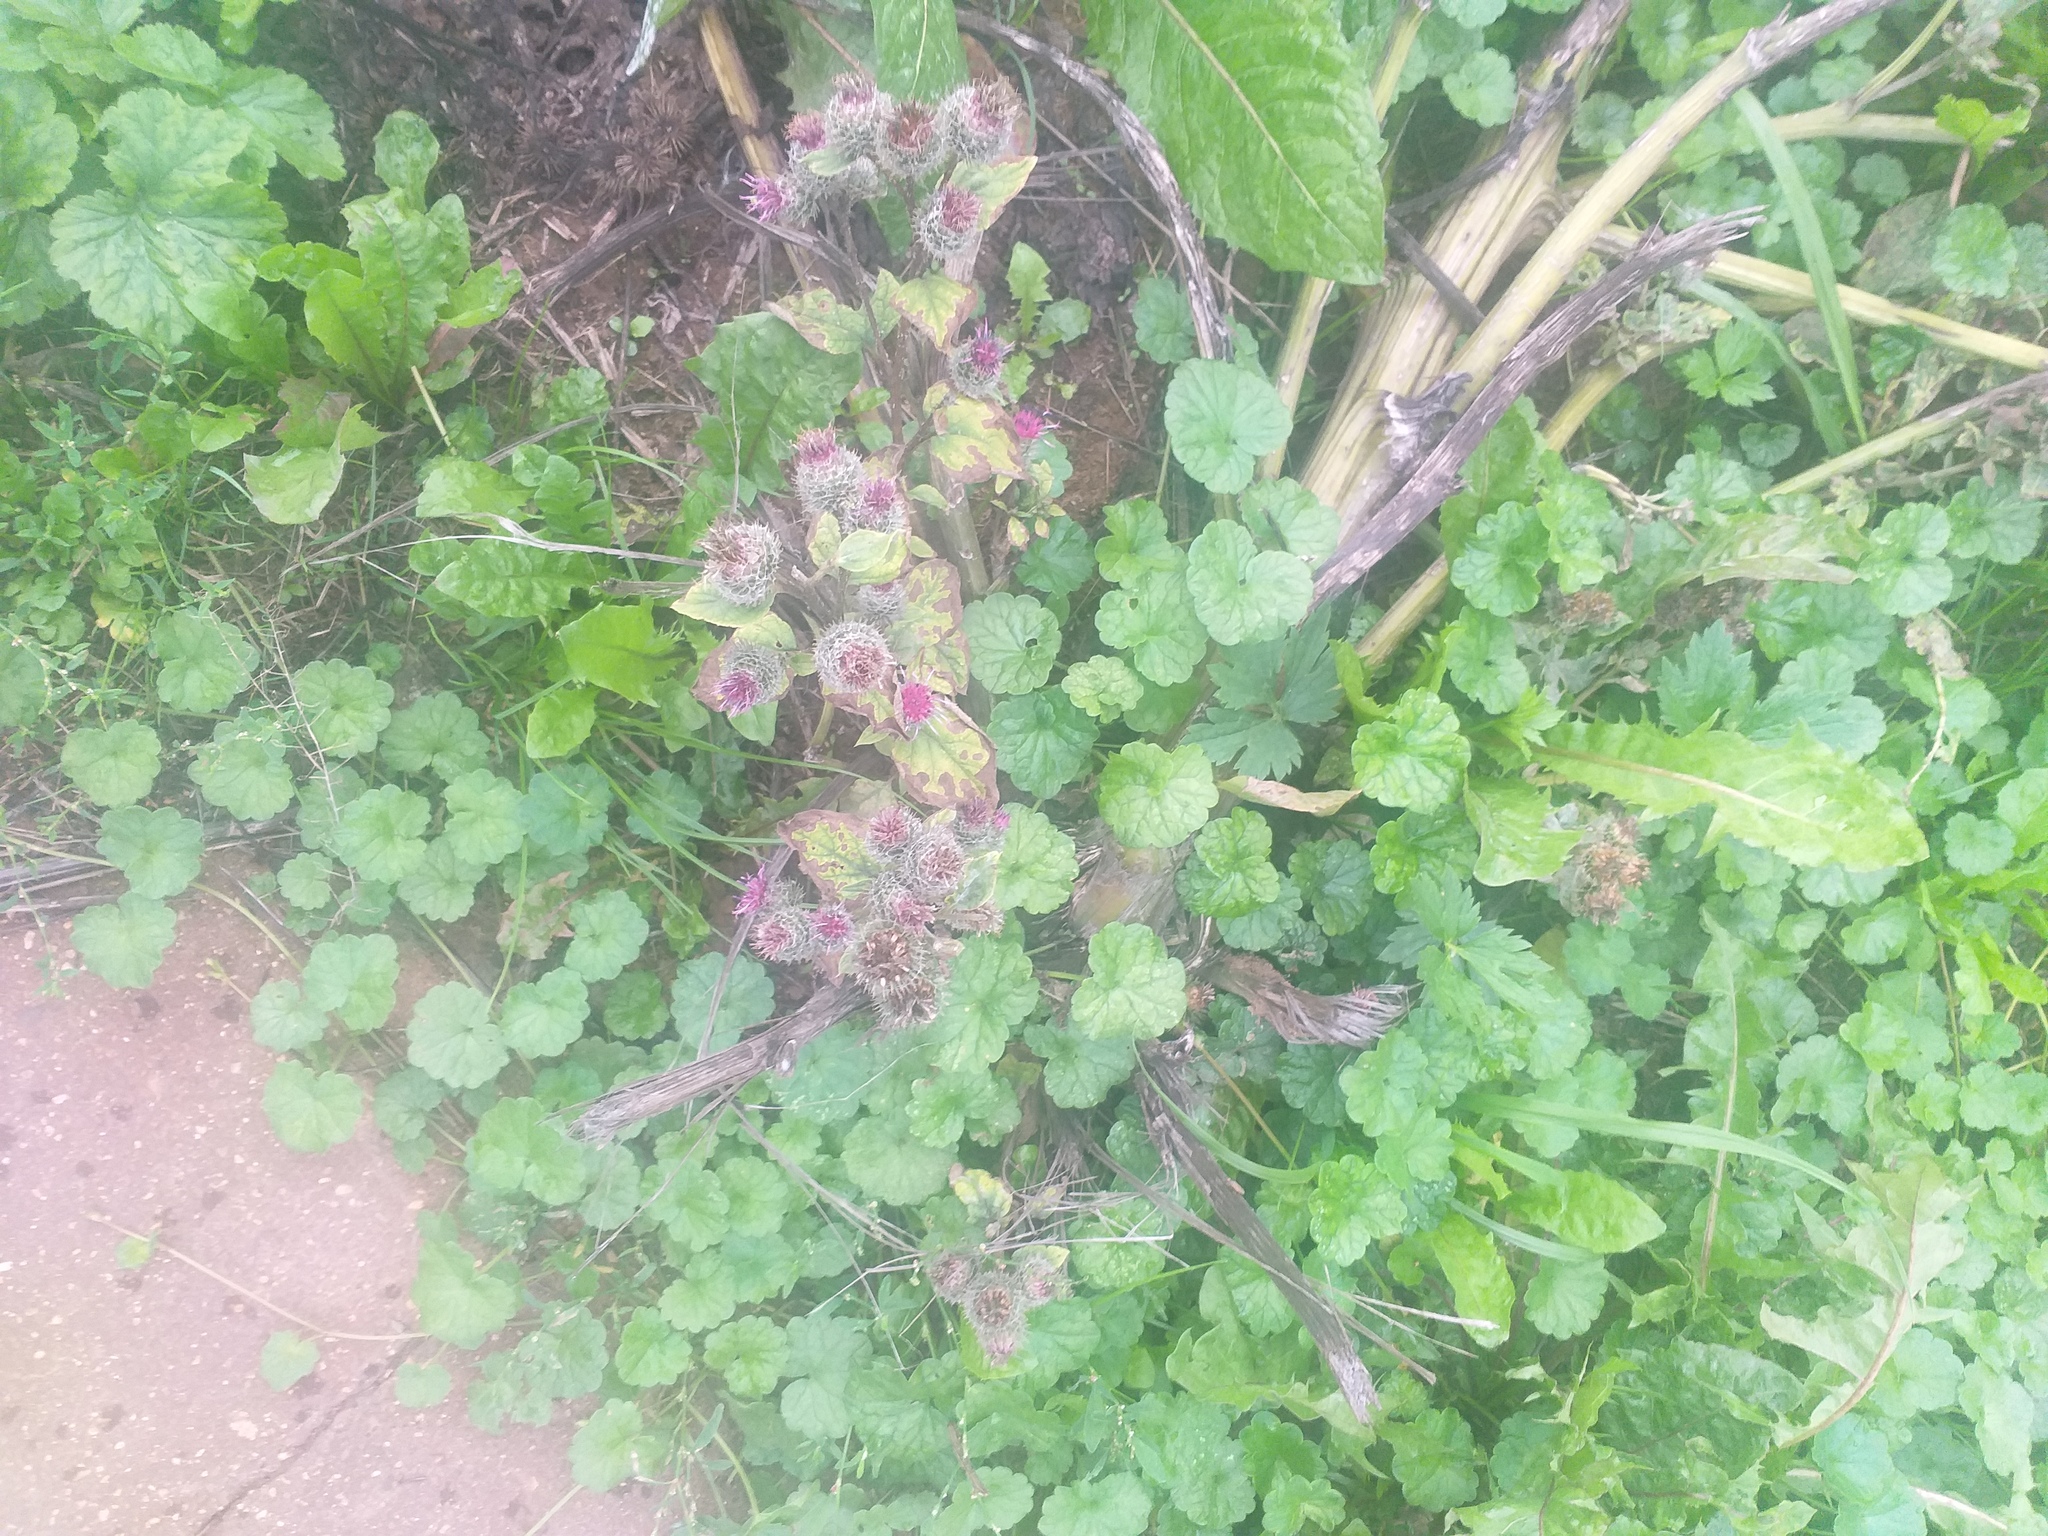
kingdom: Plantae
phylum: Tracheophyta
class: Magnoliopsida
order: Asterales
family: Asteraceae
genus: Arctium
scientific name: Arctium tomentosum
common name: Woolly burdock
